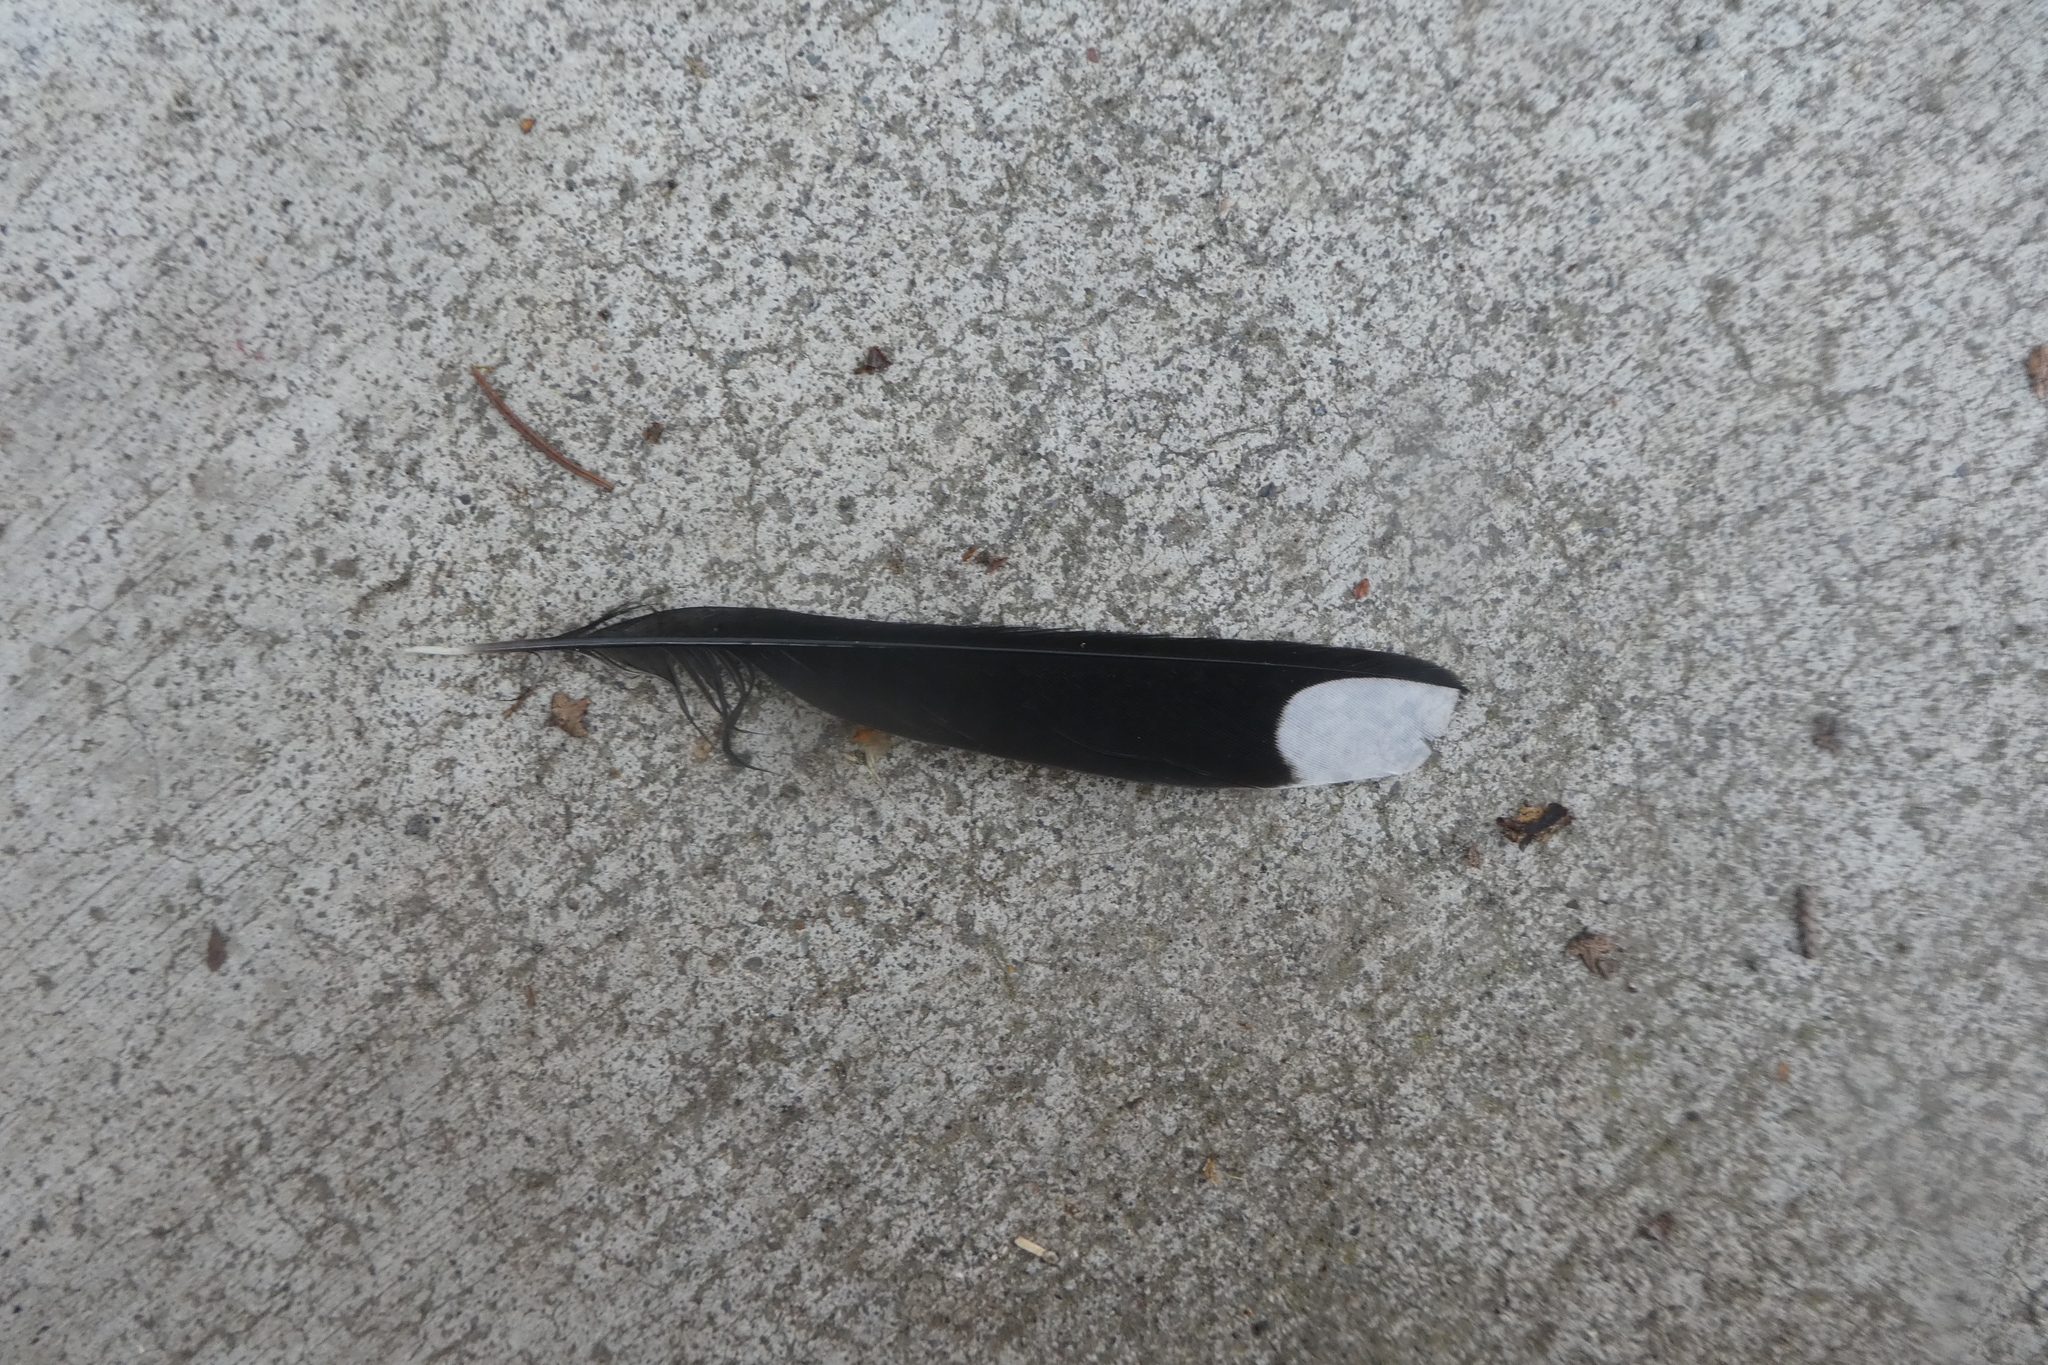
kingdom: Animalia
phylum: Chordata
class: Aves
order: Passeriformes
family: Passerellidae
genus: Pipilo
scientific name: Pipilo maculatus
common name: Spotted towhee
